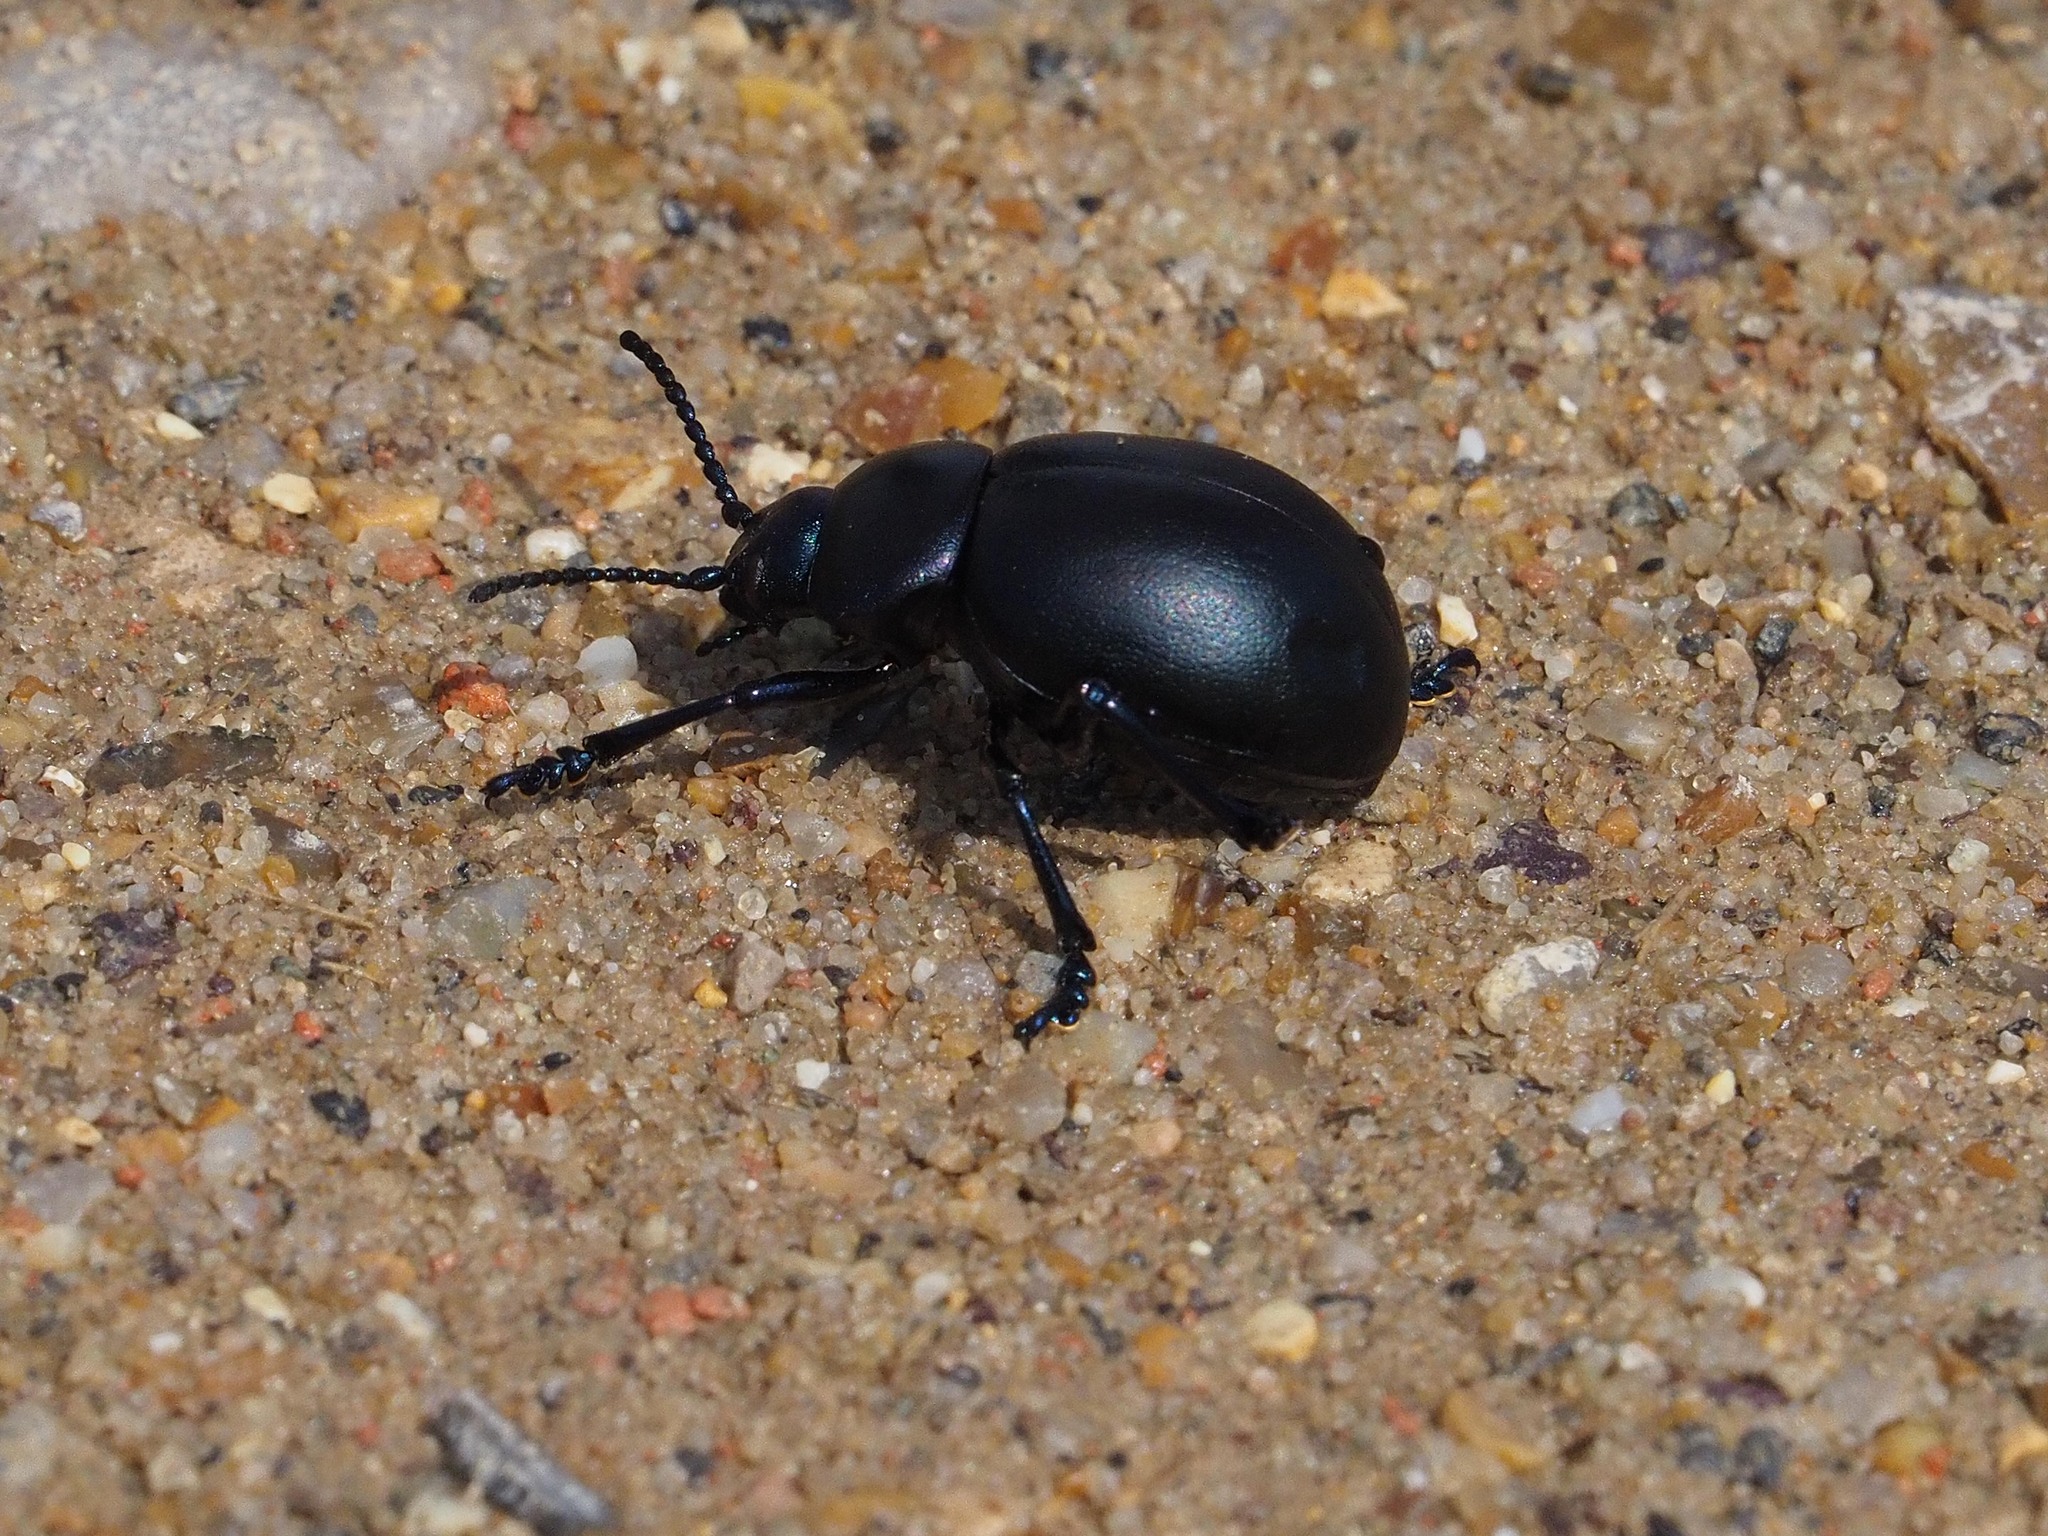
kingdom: Animalia
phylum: Arthropoda
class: Insecta
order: Coleoptera
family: Chrysomelidae
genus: Timarcha
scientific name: Timarcha tenebricosa
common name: Bloody-nosed beetle
